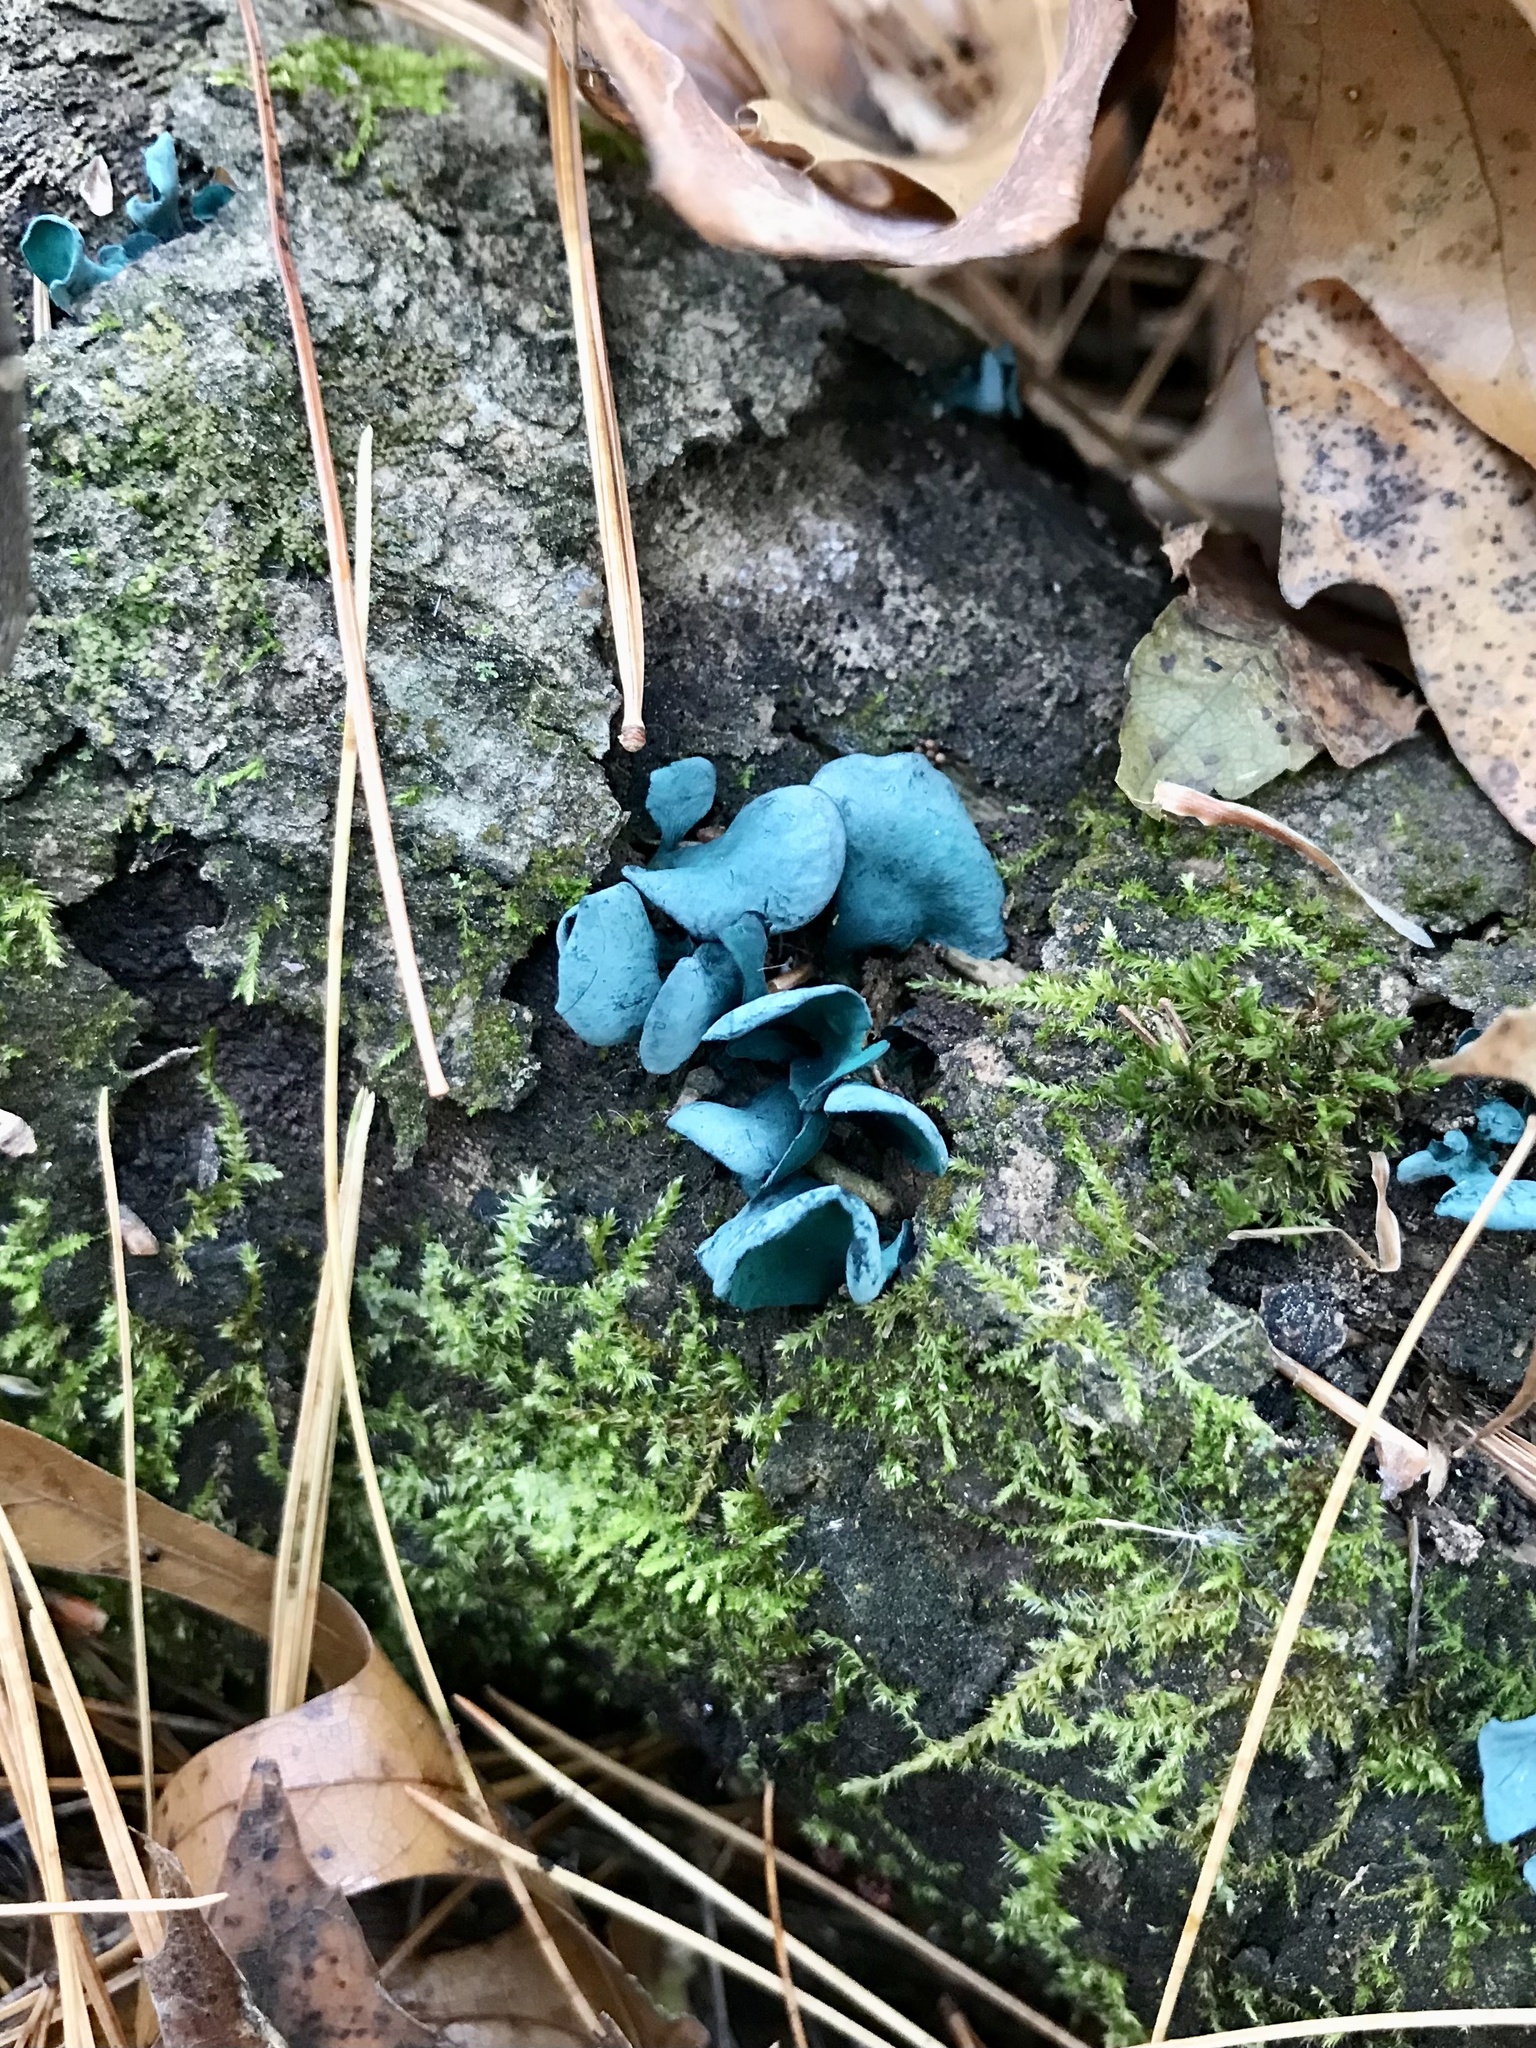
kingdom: Fungi
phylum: Ascomycota
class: Leotiomycetes
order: Helotiales
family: Chlorociboriaceae
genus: Chlorociboria
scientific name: Chlorociboria aeruginascens
